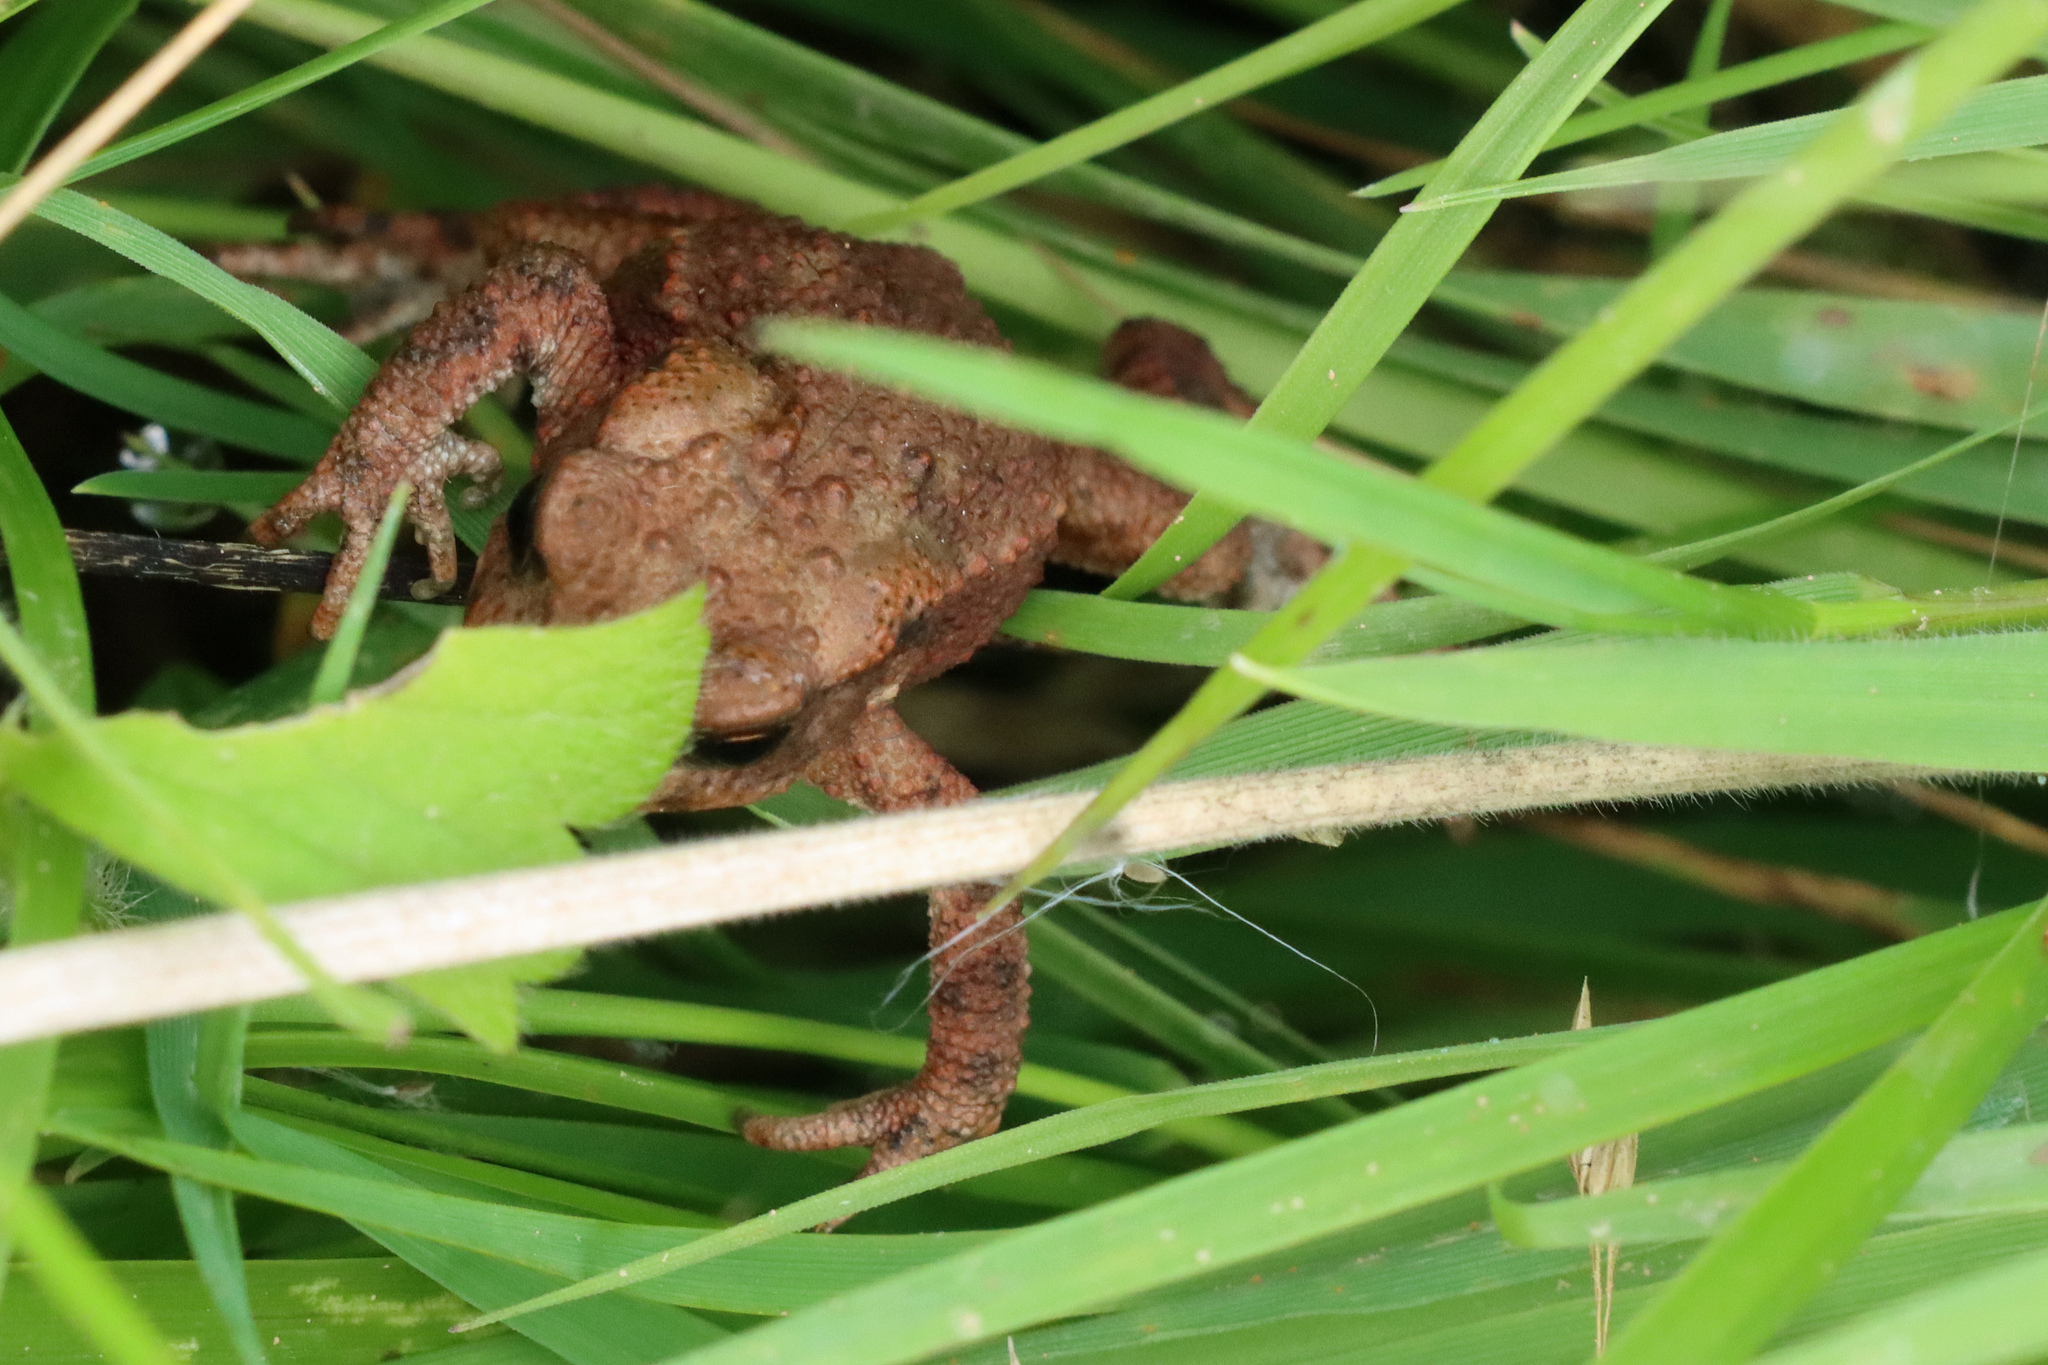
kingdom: Animalia
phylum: Chordata
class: Amphibia
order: Anura
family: Bufonidae
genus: Bufo
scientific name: Bufo bufo
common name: Common toad
